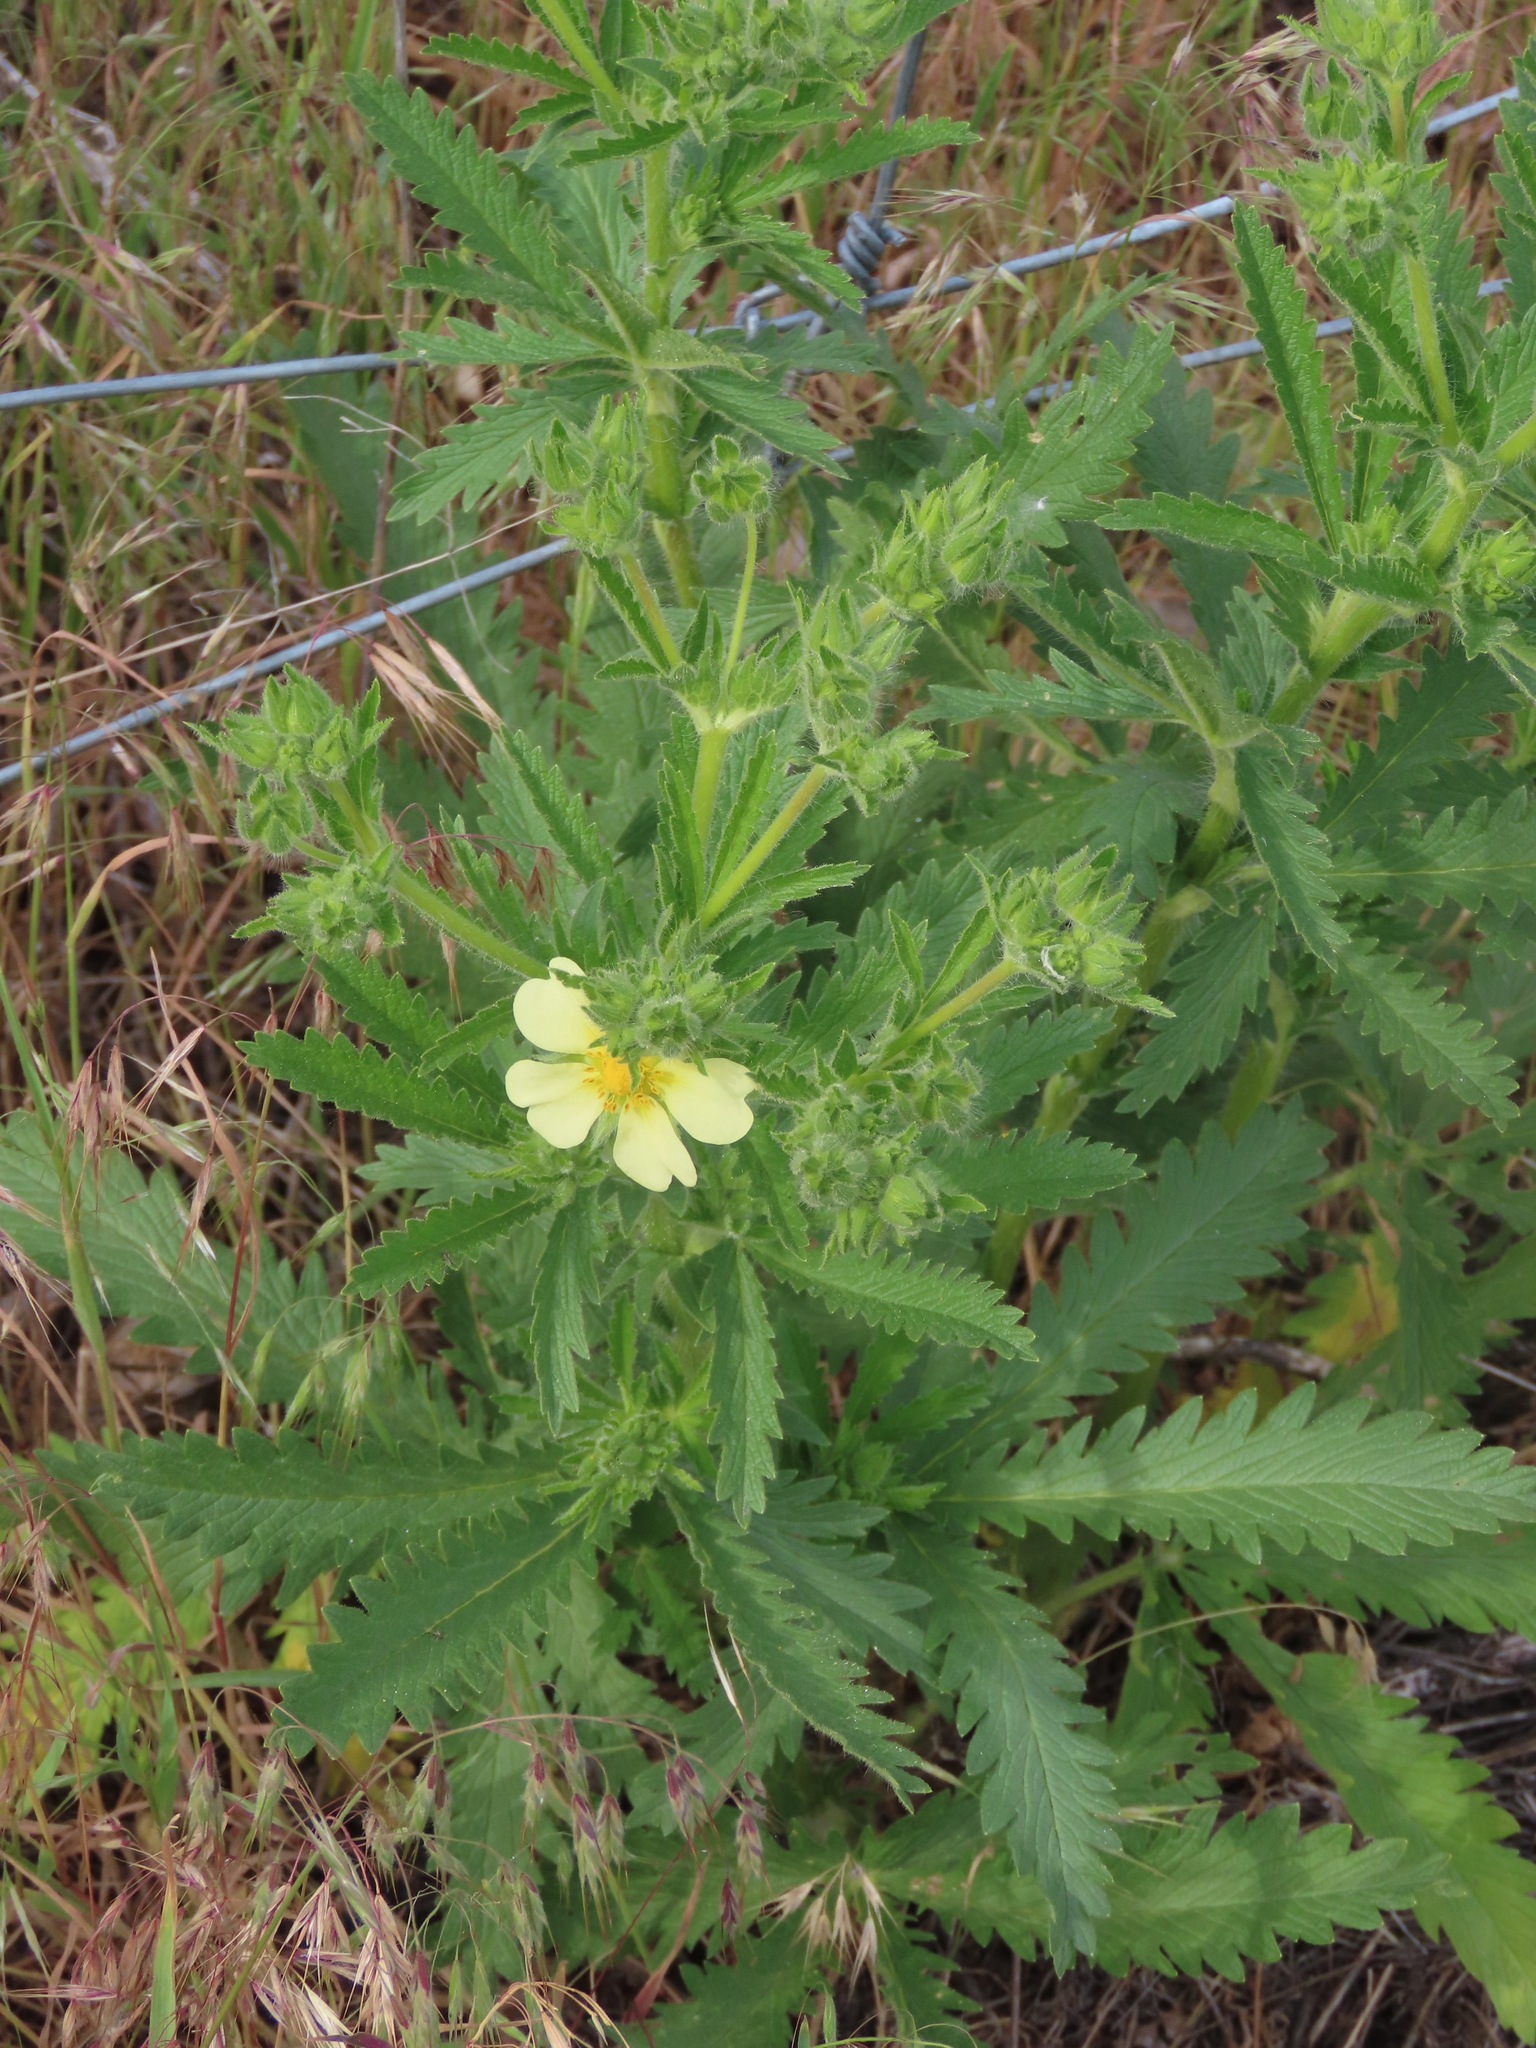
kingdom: Plantae
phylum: Tracheophyta
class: Magnoliopsida
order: Rosales
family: Rosaceae
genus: Potentilla
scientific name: Potentilla recta
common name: Sulphur cinquefoil
